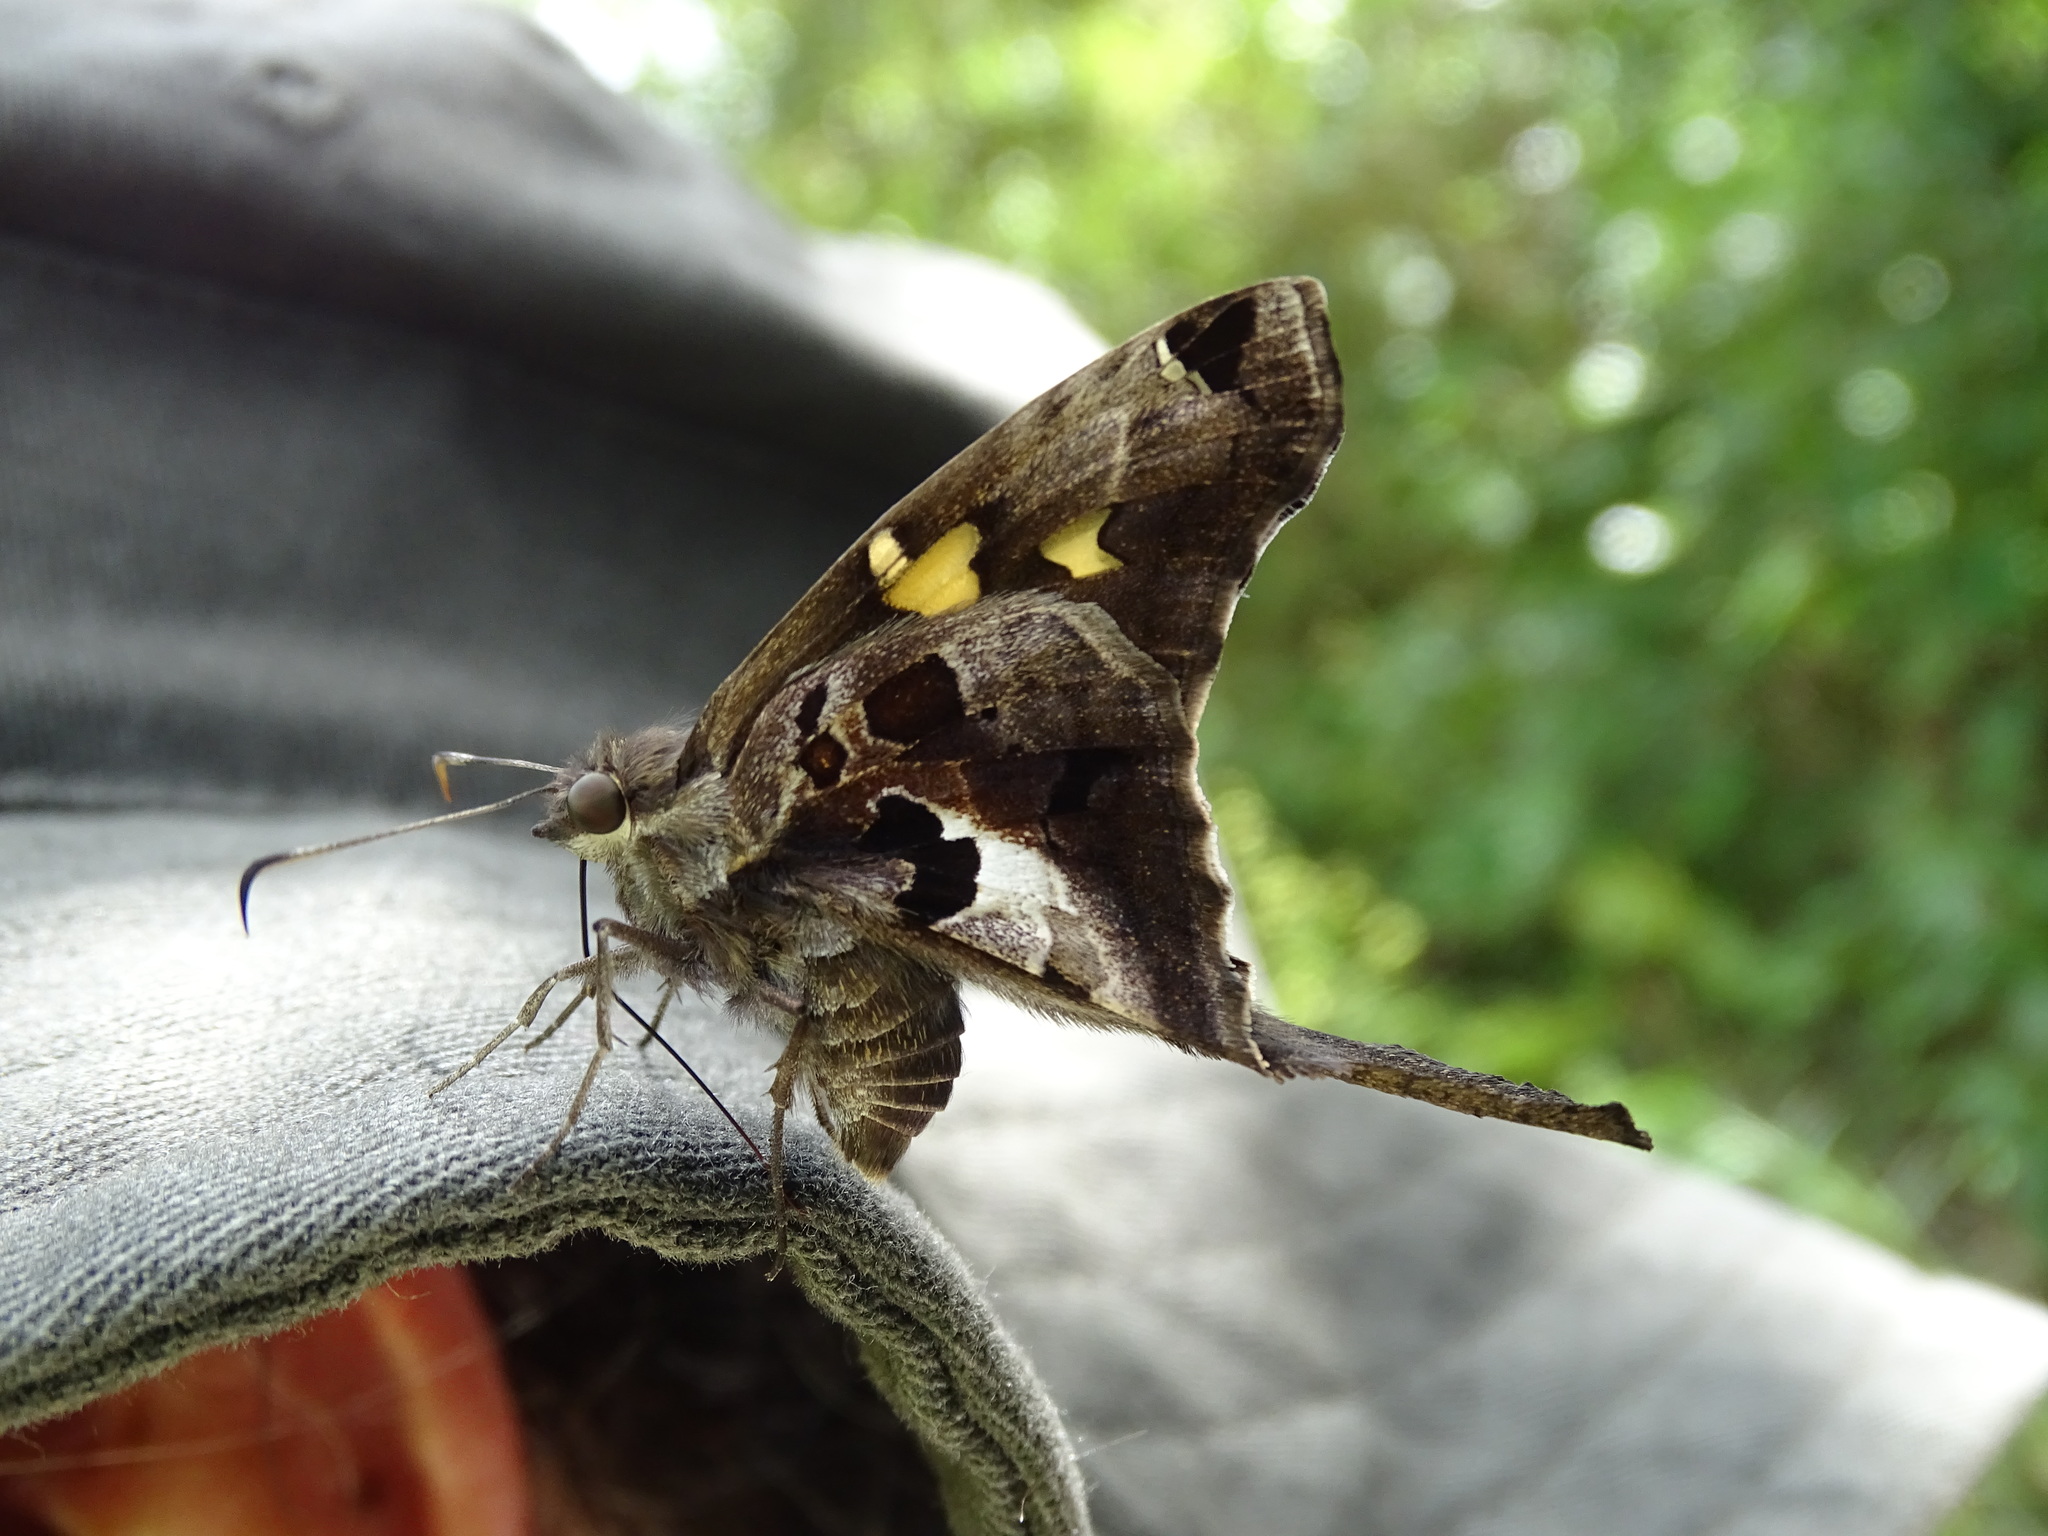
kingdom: Animalia
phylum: Arthropoda
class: Insecta
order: Lepidoptera
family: Hesperiidae
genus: Chioides
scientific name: Chioides zilpa
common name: Zilpa longtail
